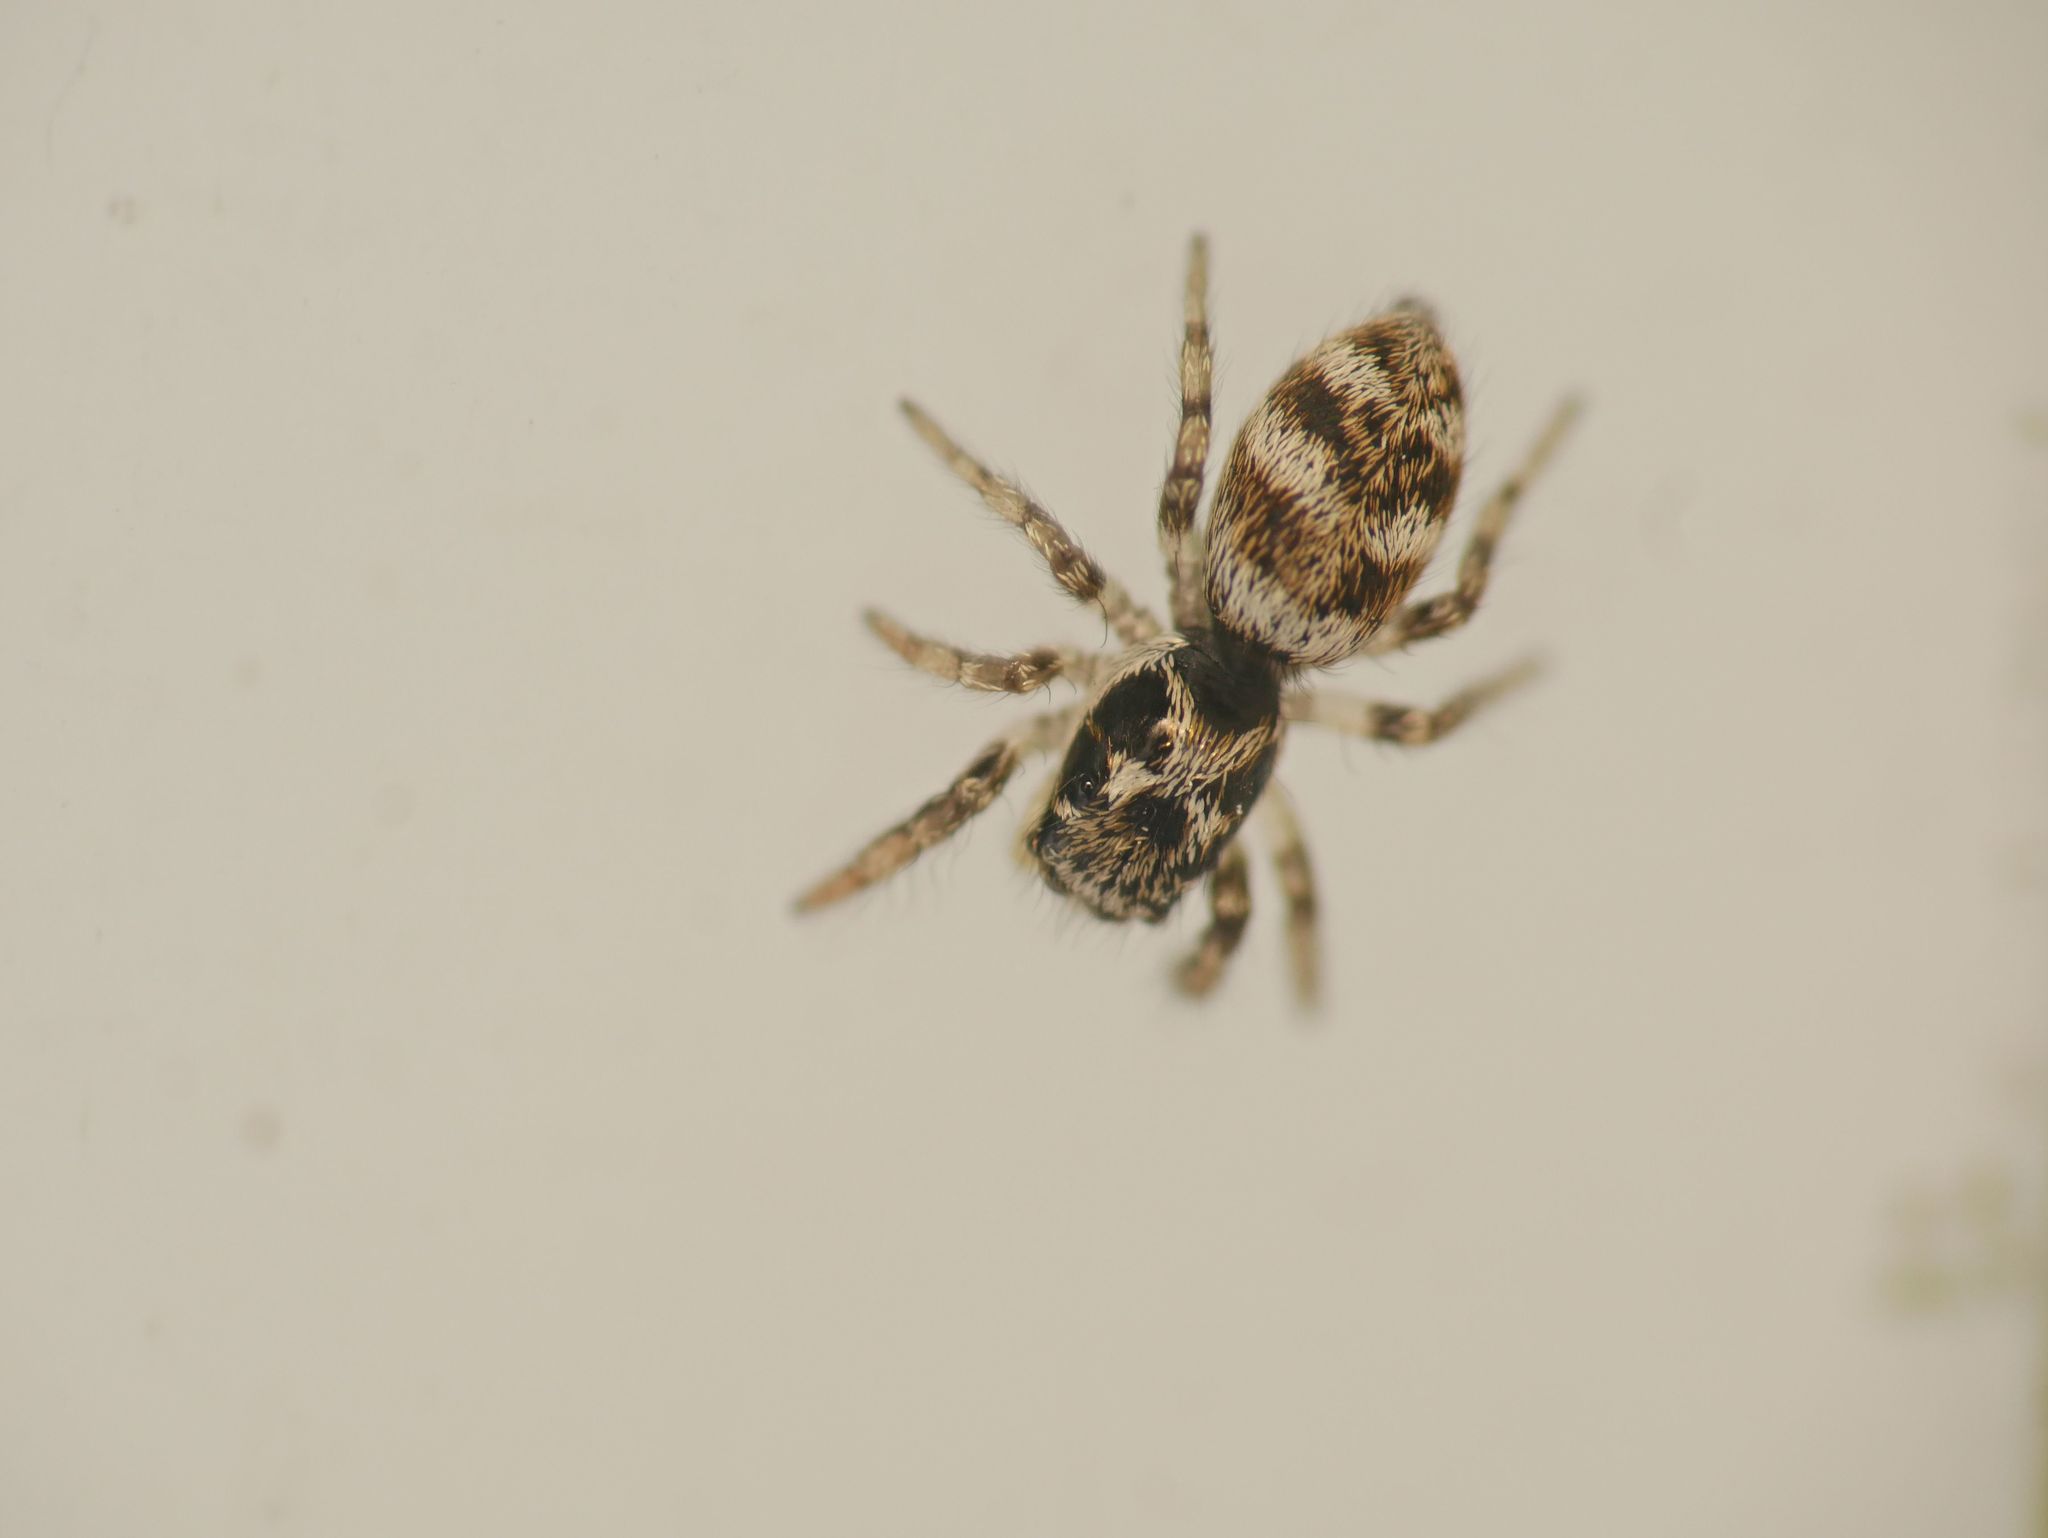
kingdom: Animalia
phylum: Arthropoda
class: Arachnida
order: Araneae
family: Salticidae
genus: Salticus
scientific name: Salticus scenicus
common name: Zebra jumper
